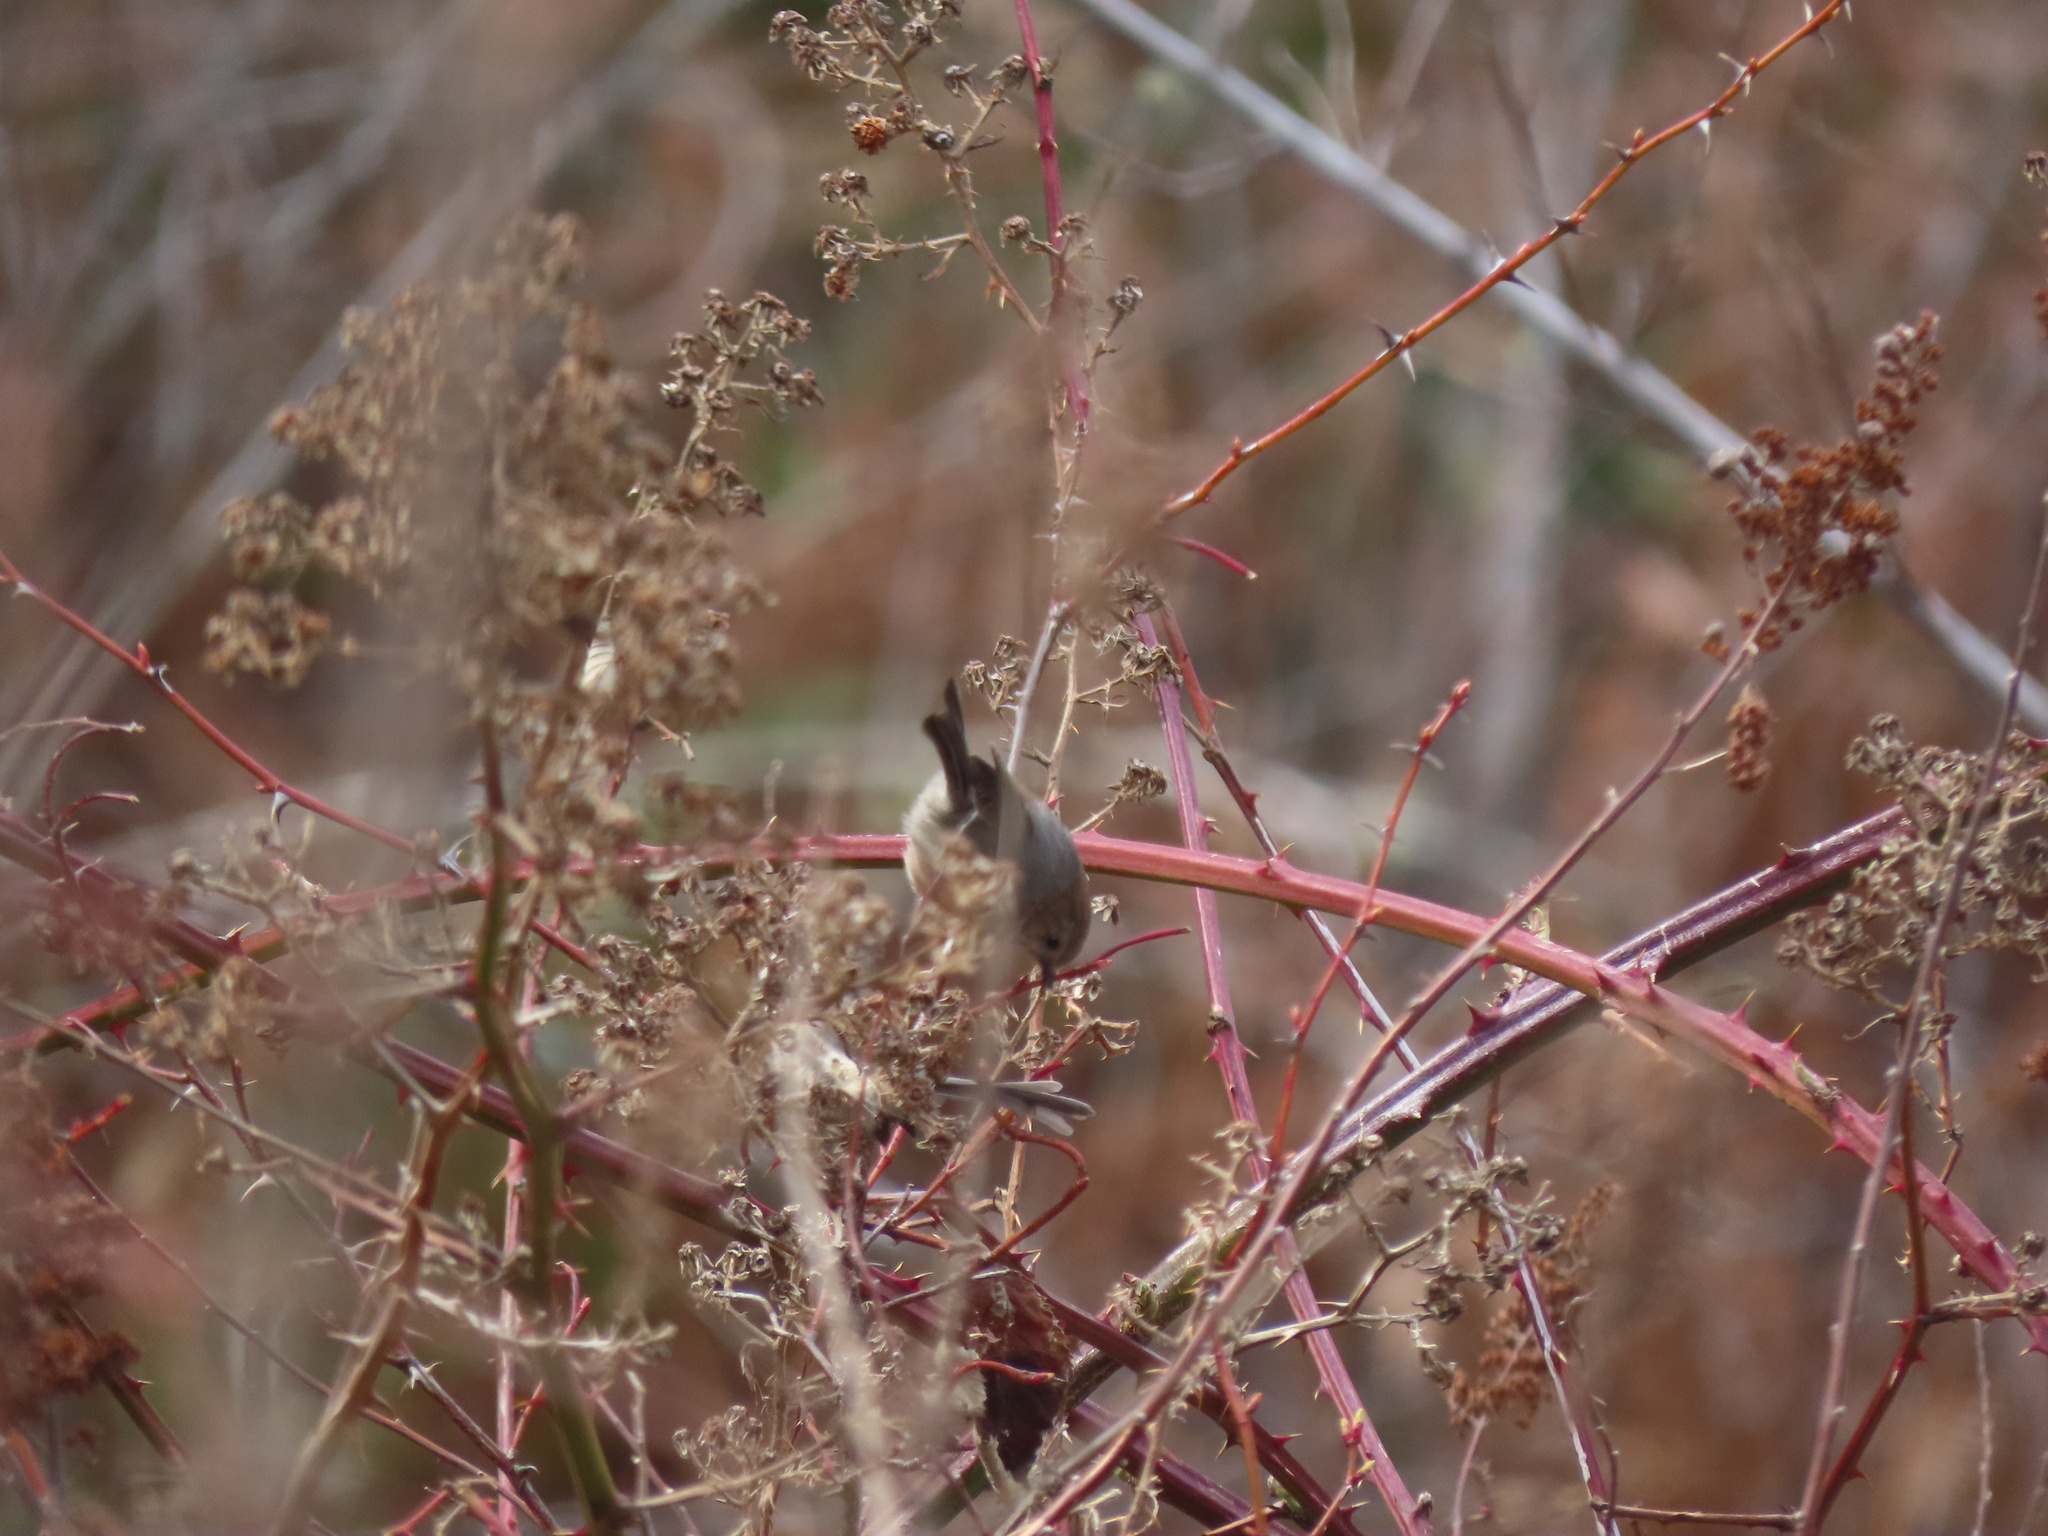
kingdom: Animalia
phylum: Chordata
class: Aves
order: Passeriformes
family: Aegithalidae
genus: Psaltriparus
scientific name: Psaltriparus minimus
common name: American bushtit
